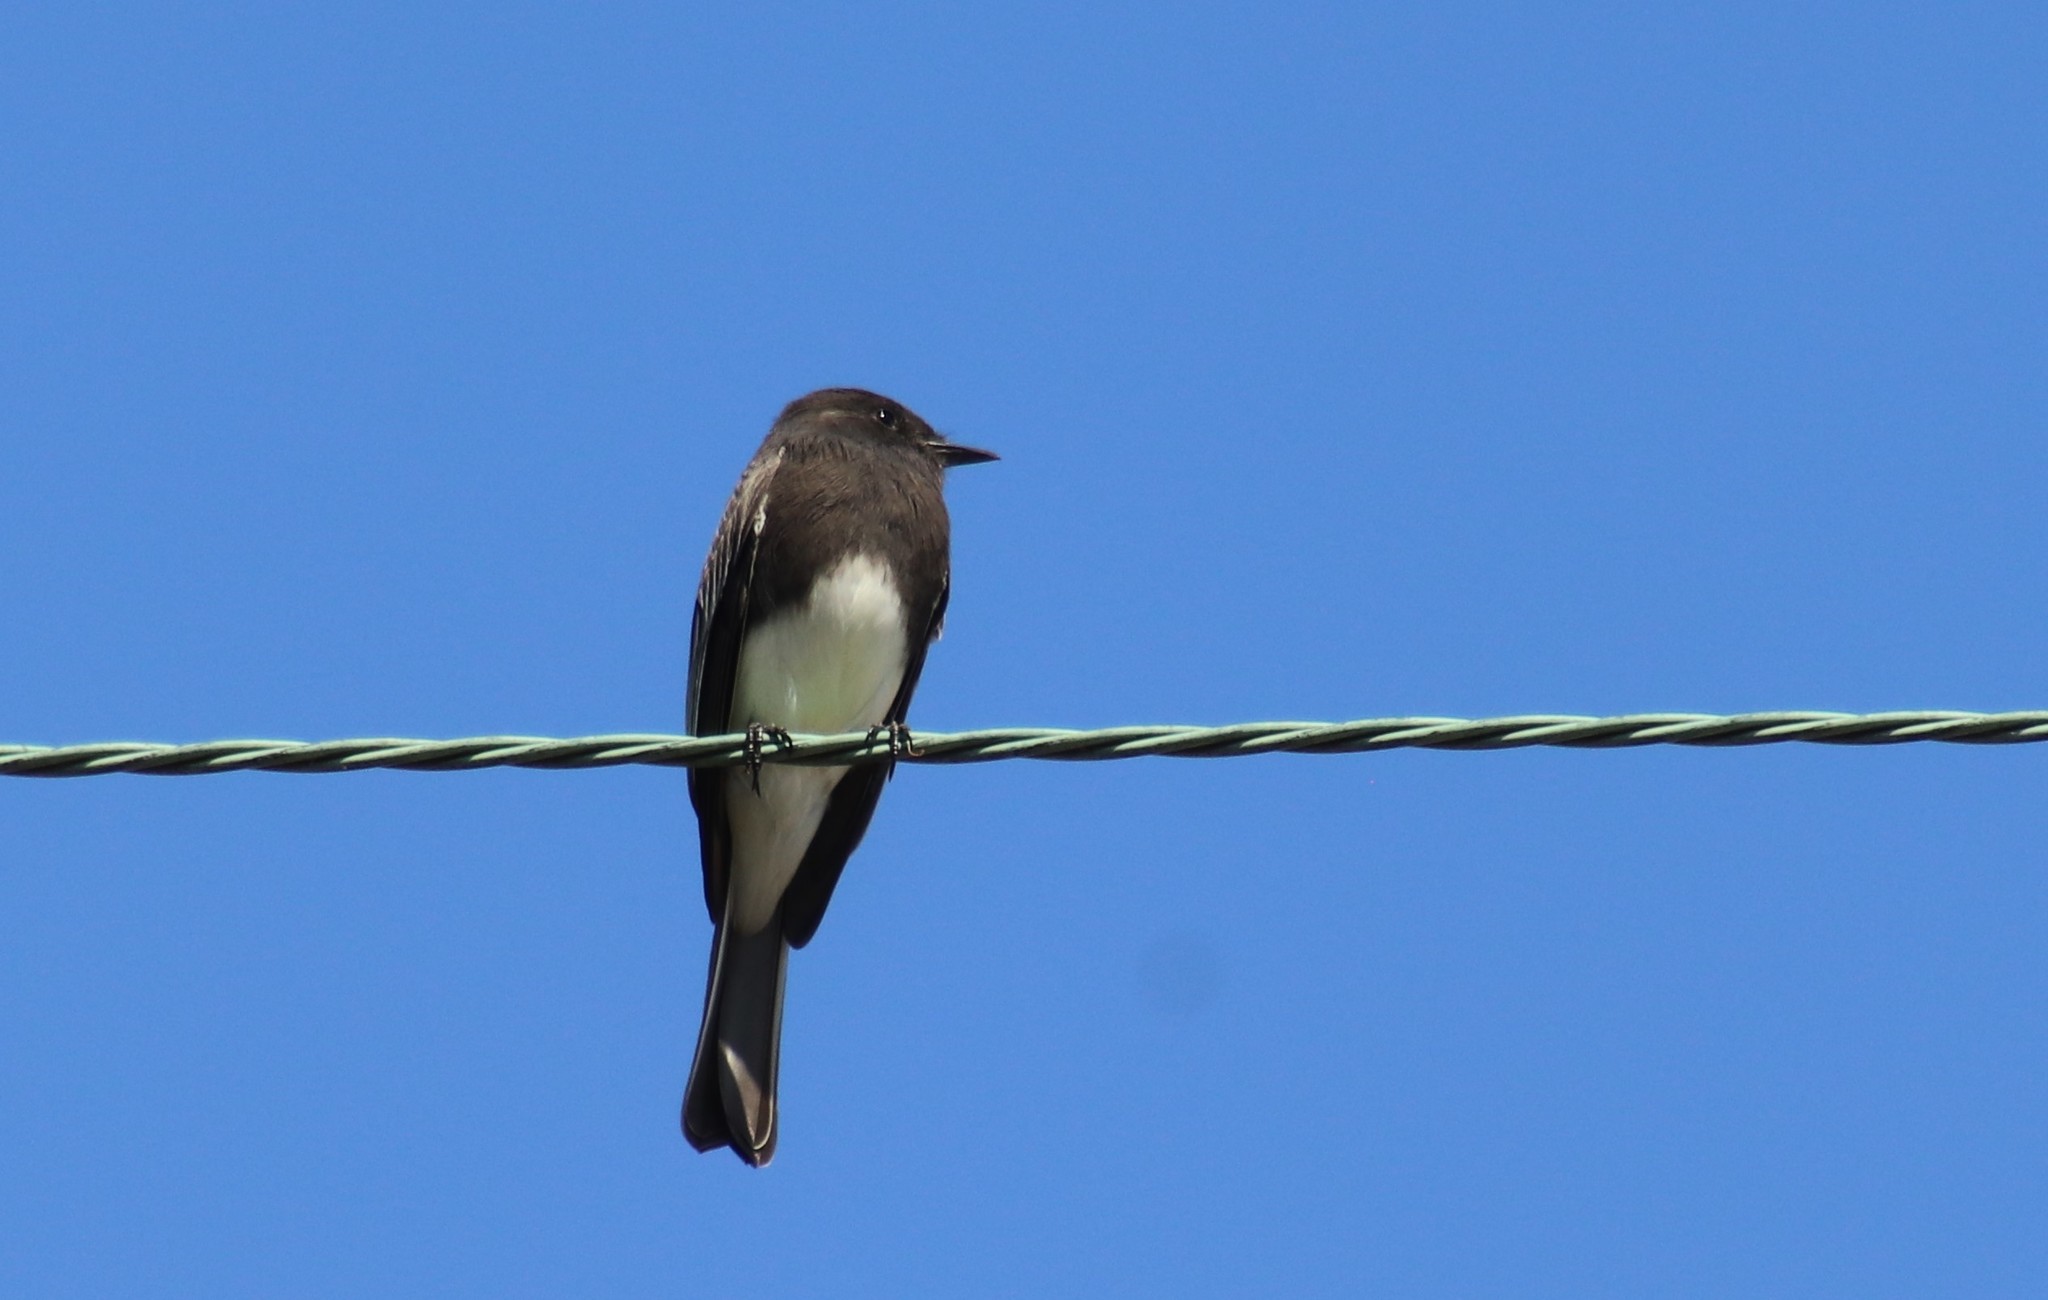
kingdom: Animalia
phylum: Chordata
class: Aves
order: Passeriformes
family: Tyrannidae
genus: Sayornis
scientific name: Sayornis nigricans
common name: Black phoebe
